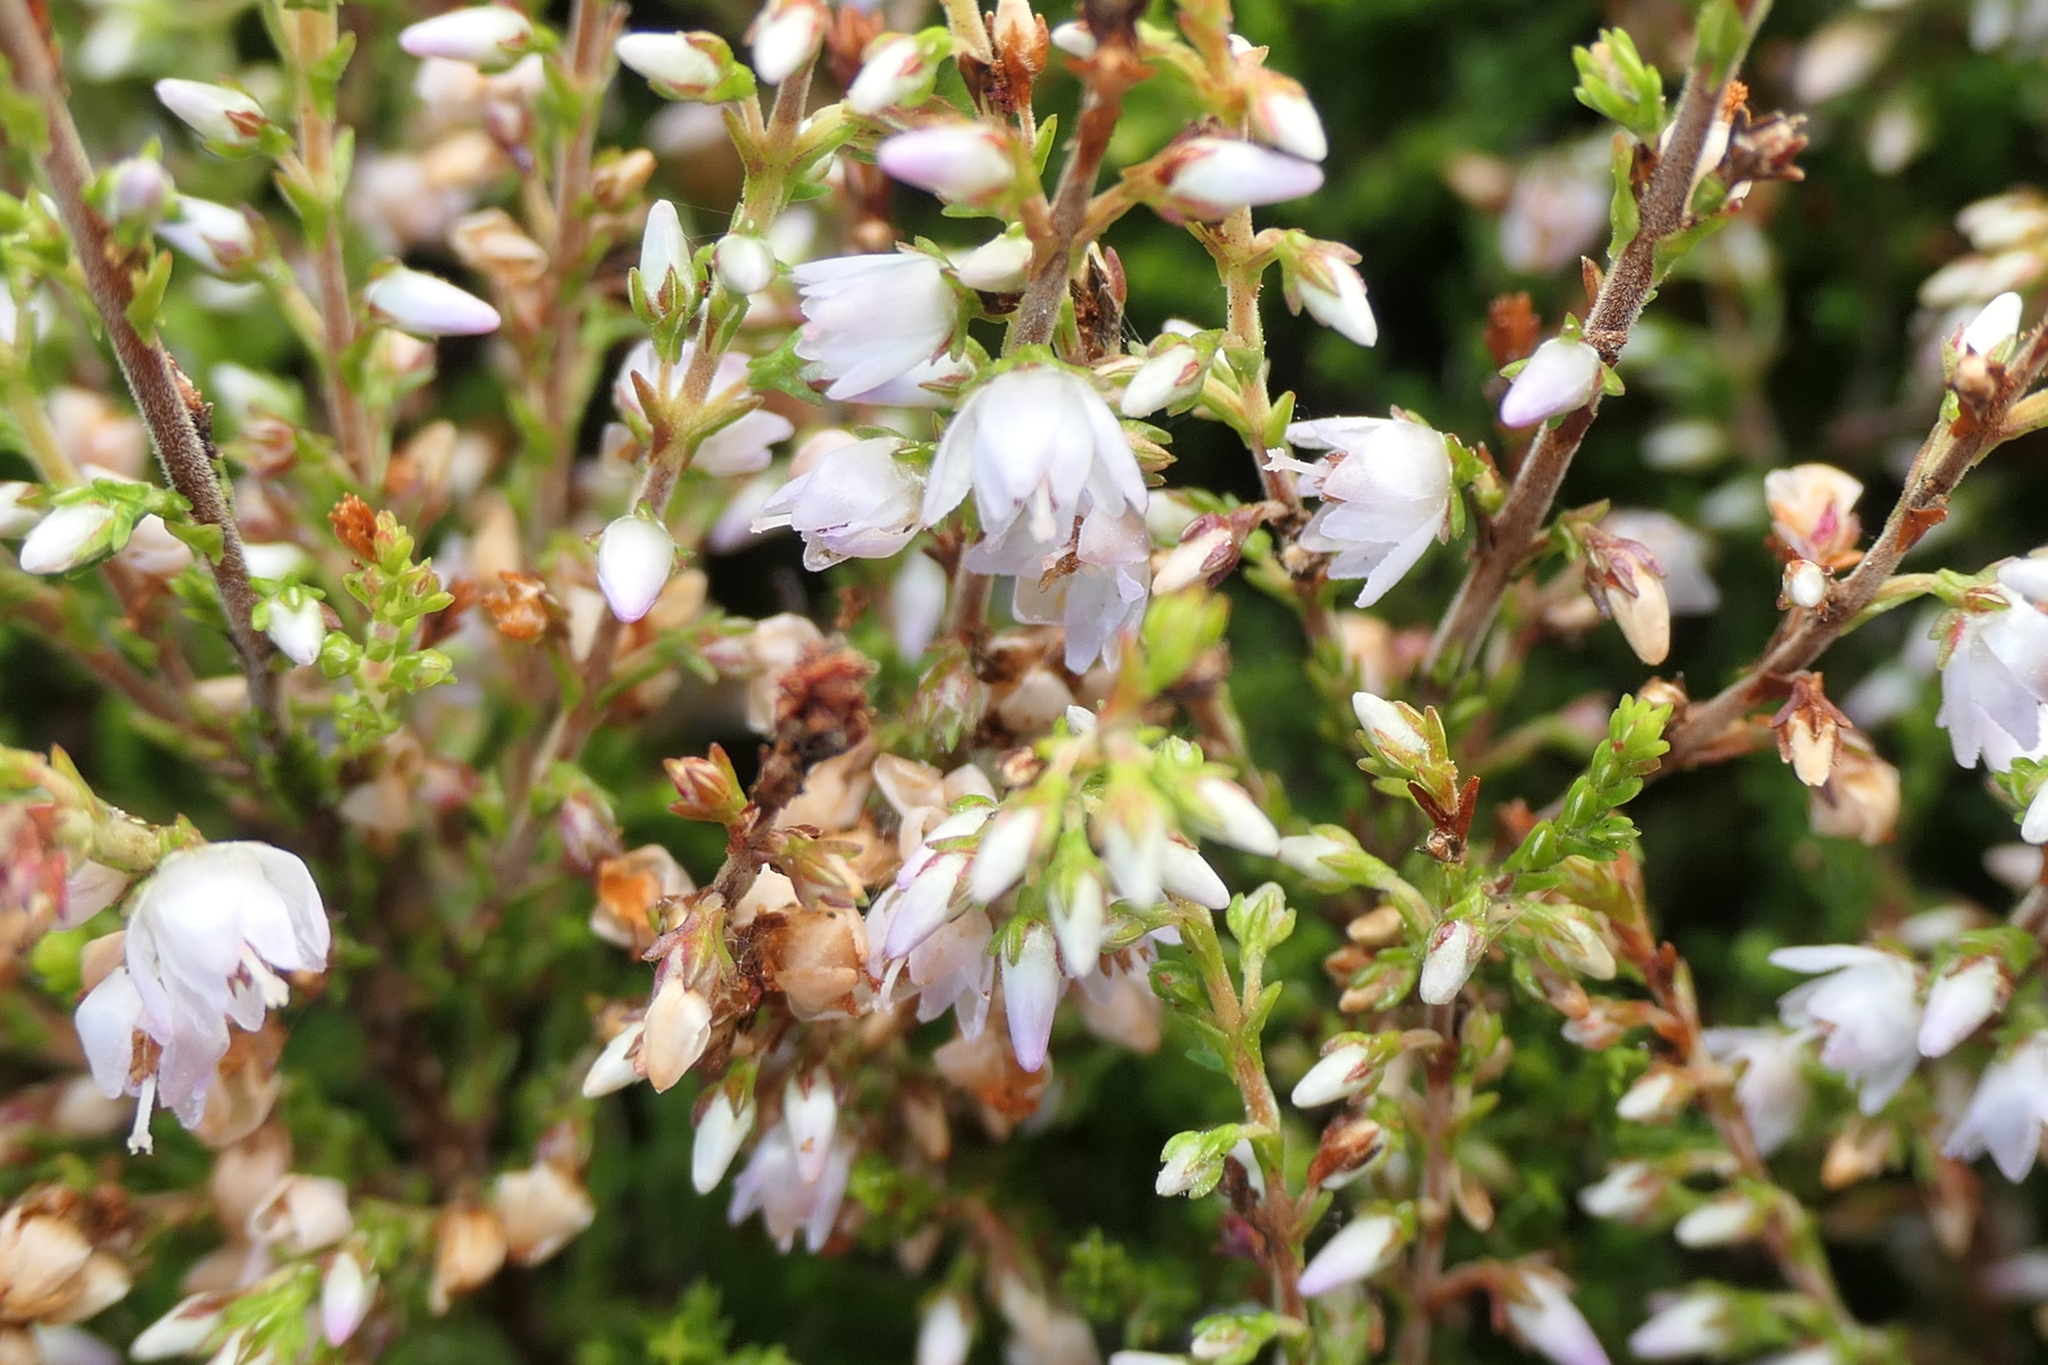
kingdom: Plantae
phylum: Tracheophyta
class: Magnoliopsida
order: Ericales
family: Ericaceae
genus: Calluna
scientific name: Calluna vulgaris
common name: Heather
